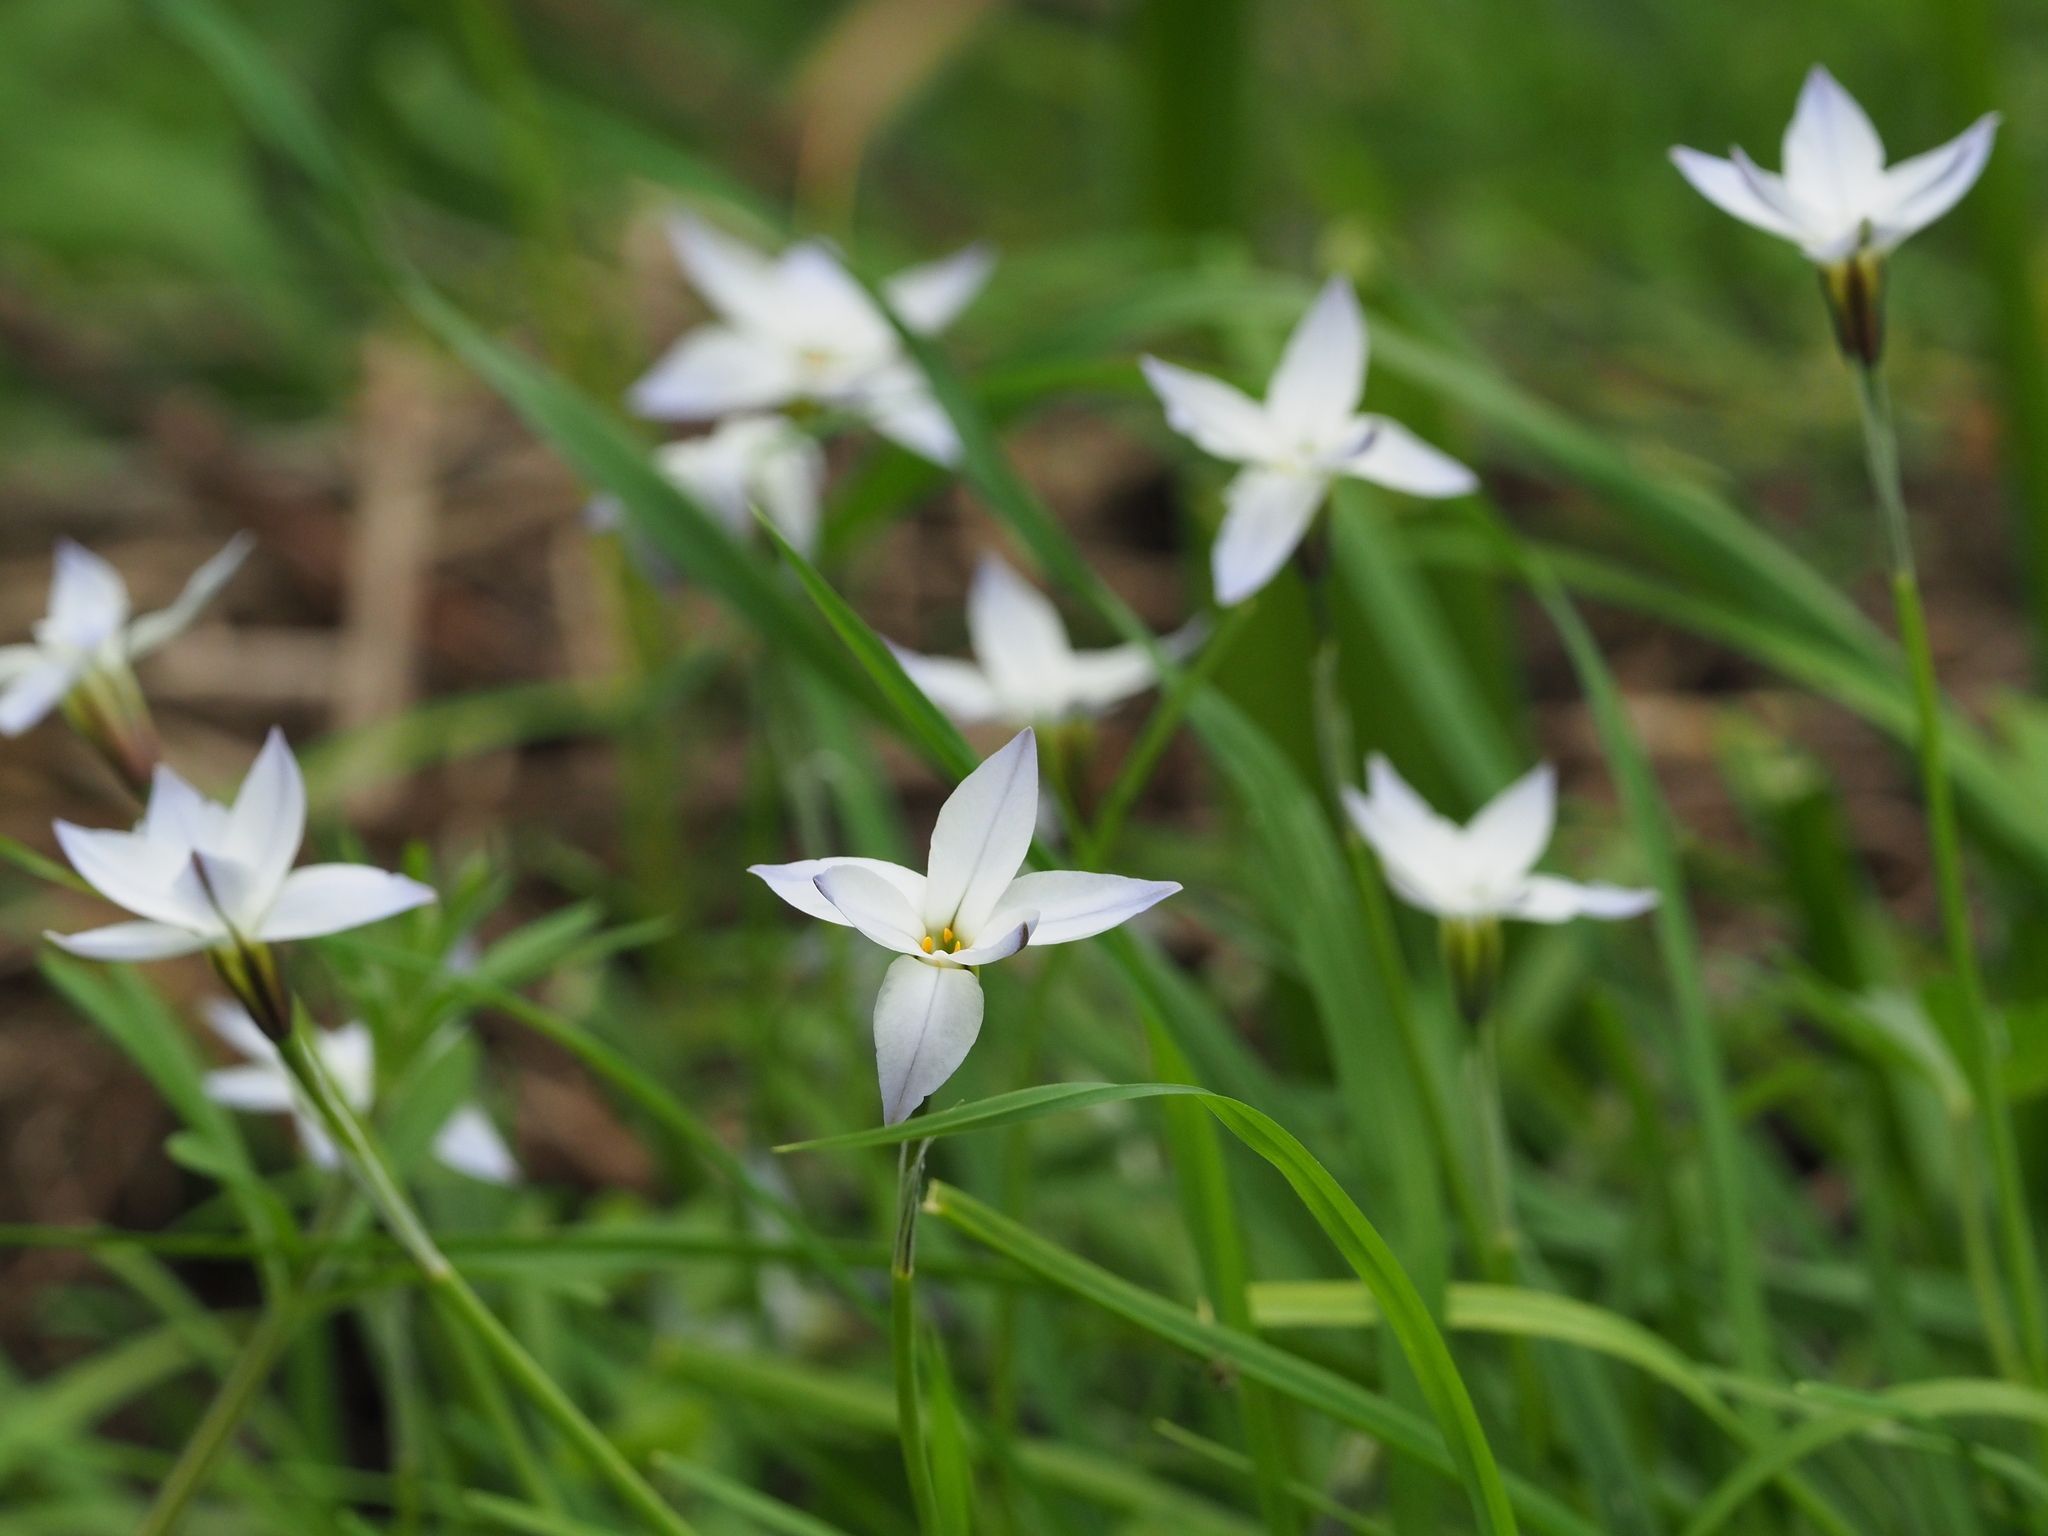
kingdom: Plantae
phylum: Tracheophyta
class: Liliopsida
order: Asparagales
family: Amaryllidaceae
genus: Ipheion
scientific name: Ipheion uniflorum
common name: Spring starflower
